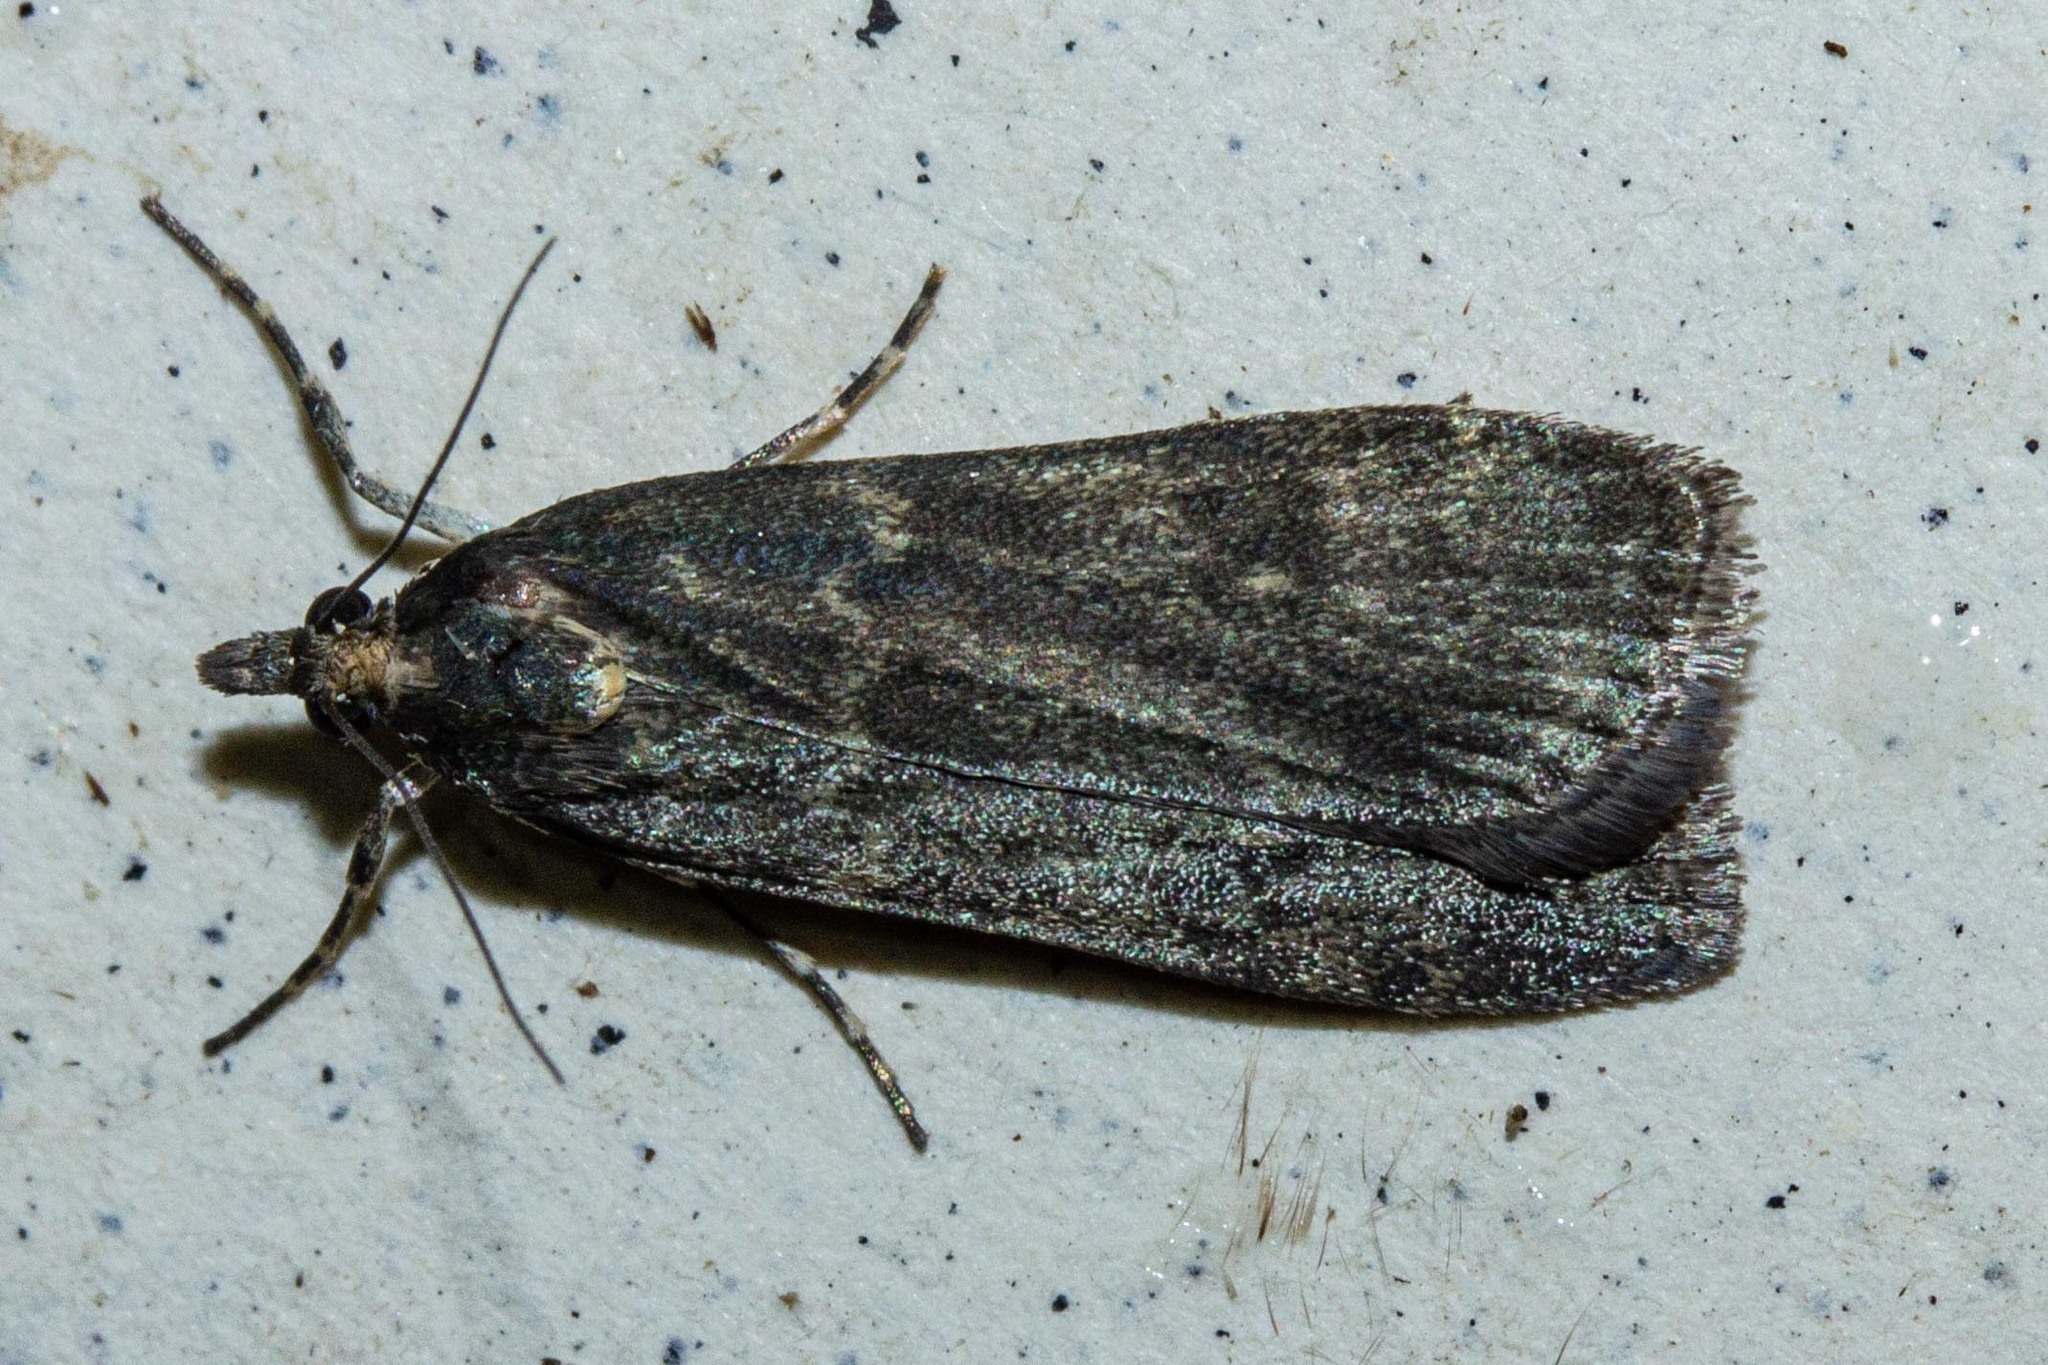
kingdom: Animalia
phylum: Arthropoda
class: Insecta
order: Lepidoptera
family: Crambidae
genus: Eudonia
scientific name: Eudonia cataxesta
